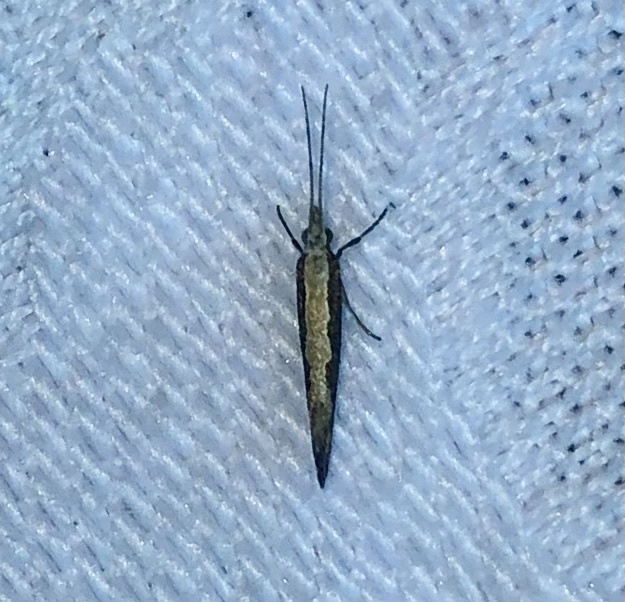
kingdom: Animalia
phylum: Arthropoda
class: Insecta
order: Lepidoptera
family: Plutellidae
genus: Plutella
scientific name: Plutella xylostella
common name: Diamond-back moth
